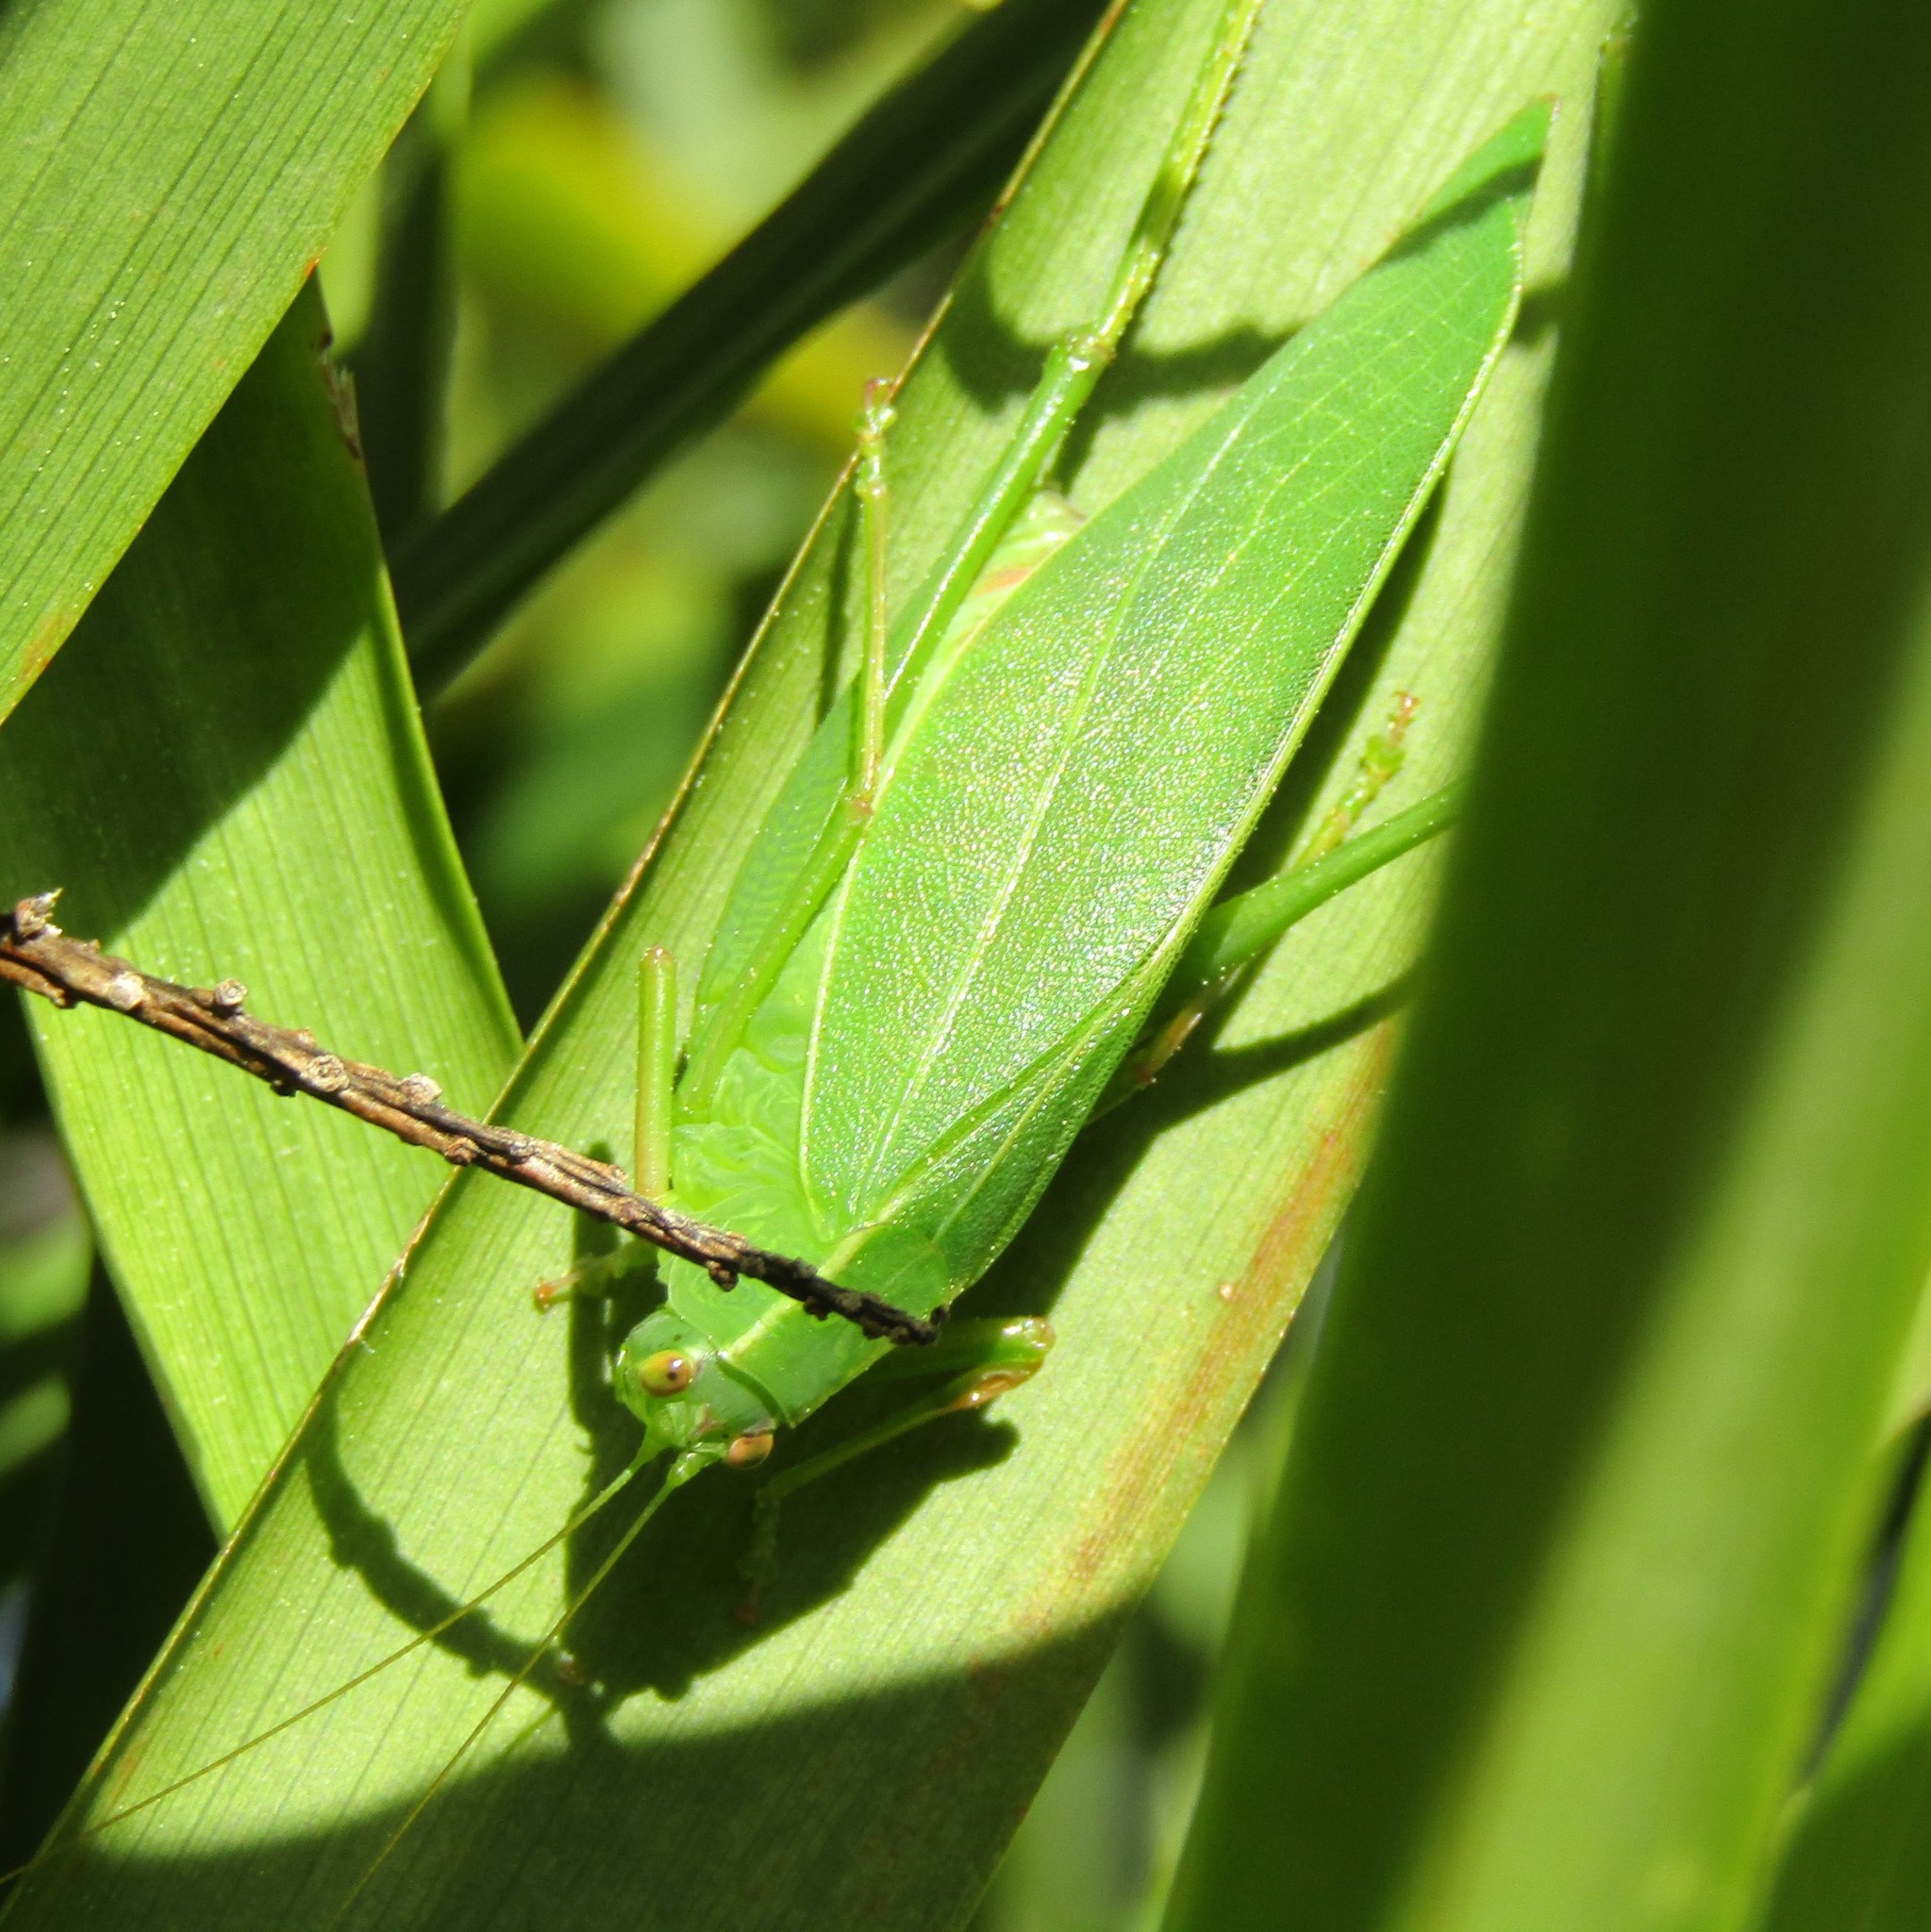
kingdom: Animalia
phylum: Arthropoda
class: Insecta
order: Orthoptera
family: Tettigoniidae
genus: Caedicia
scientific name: Caedicia simplex
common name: Common garden katydid
